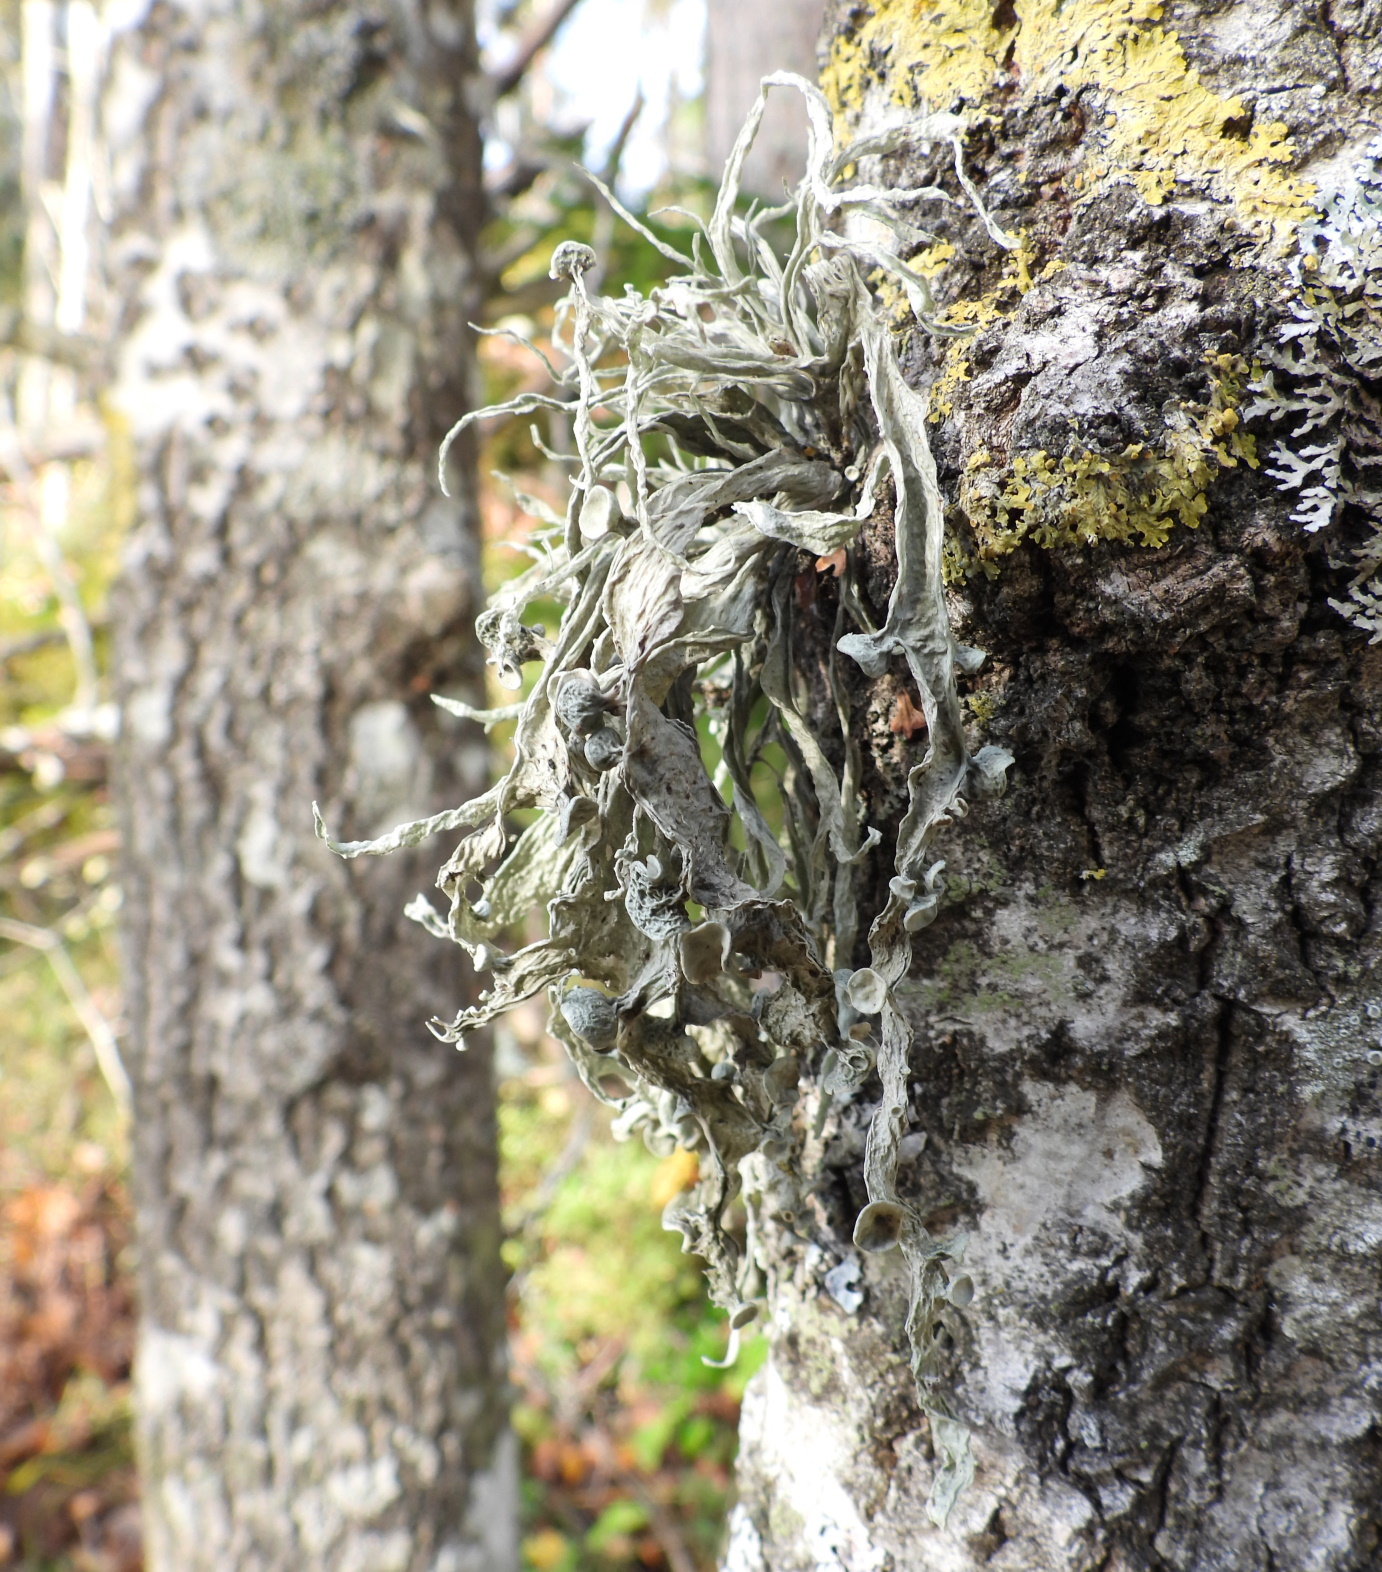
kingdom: Fungi
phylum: Ascomycota
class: Lecanoromycetes
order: Lecanorales
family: Ramalinaceae
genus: Ramalina
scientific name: Ramalina fraxinea
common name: Cartilage lichen
